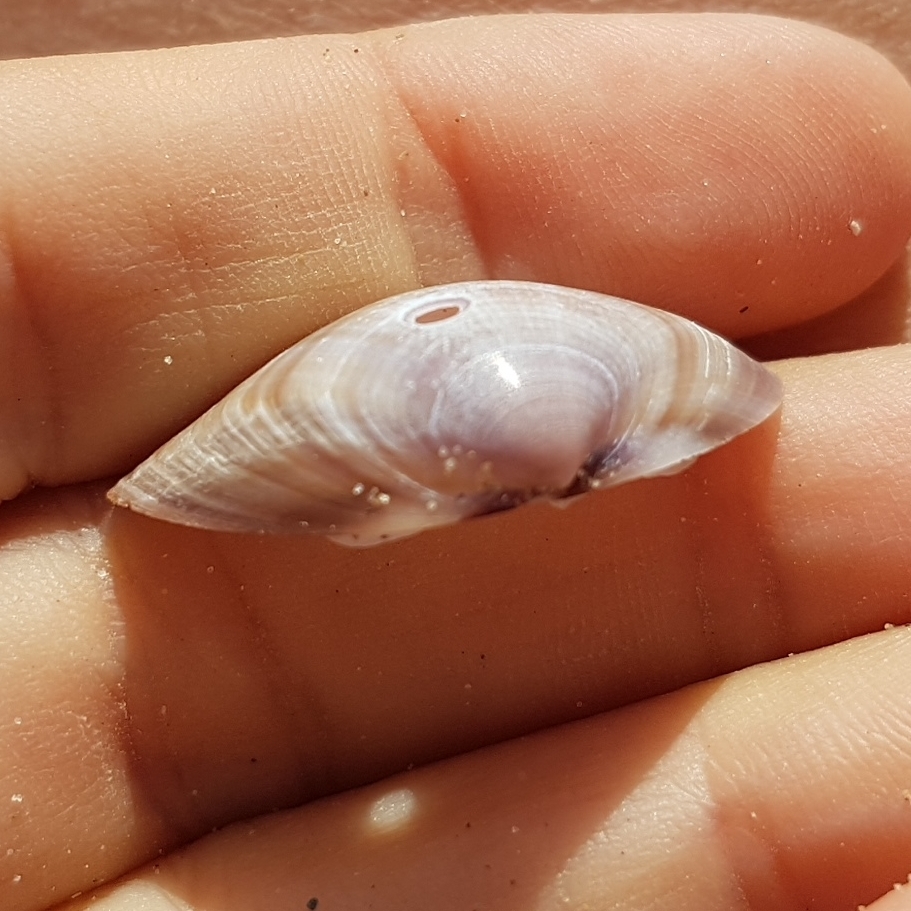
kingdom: Animalia
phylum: Mollusca
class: Bivalvia
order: Venerida
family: Mactridae
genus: Mactra
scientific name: Mactra stultorum
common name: Rayed trough shell
